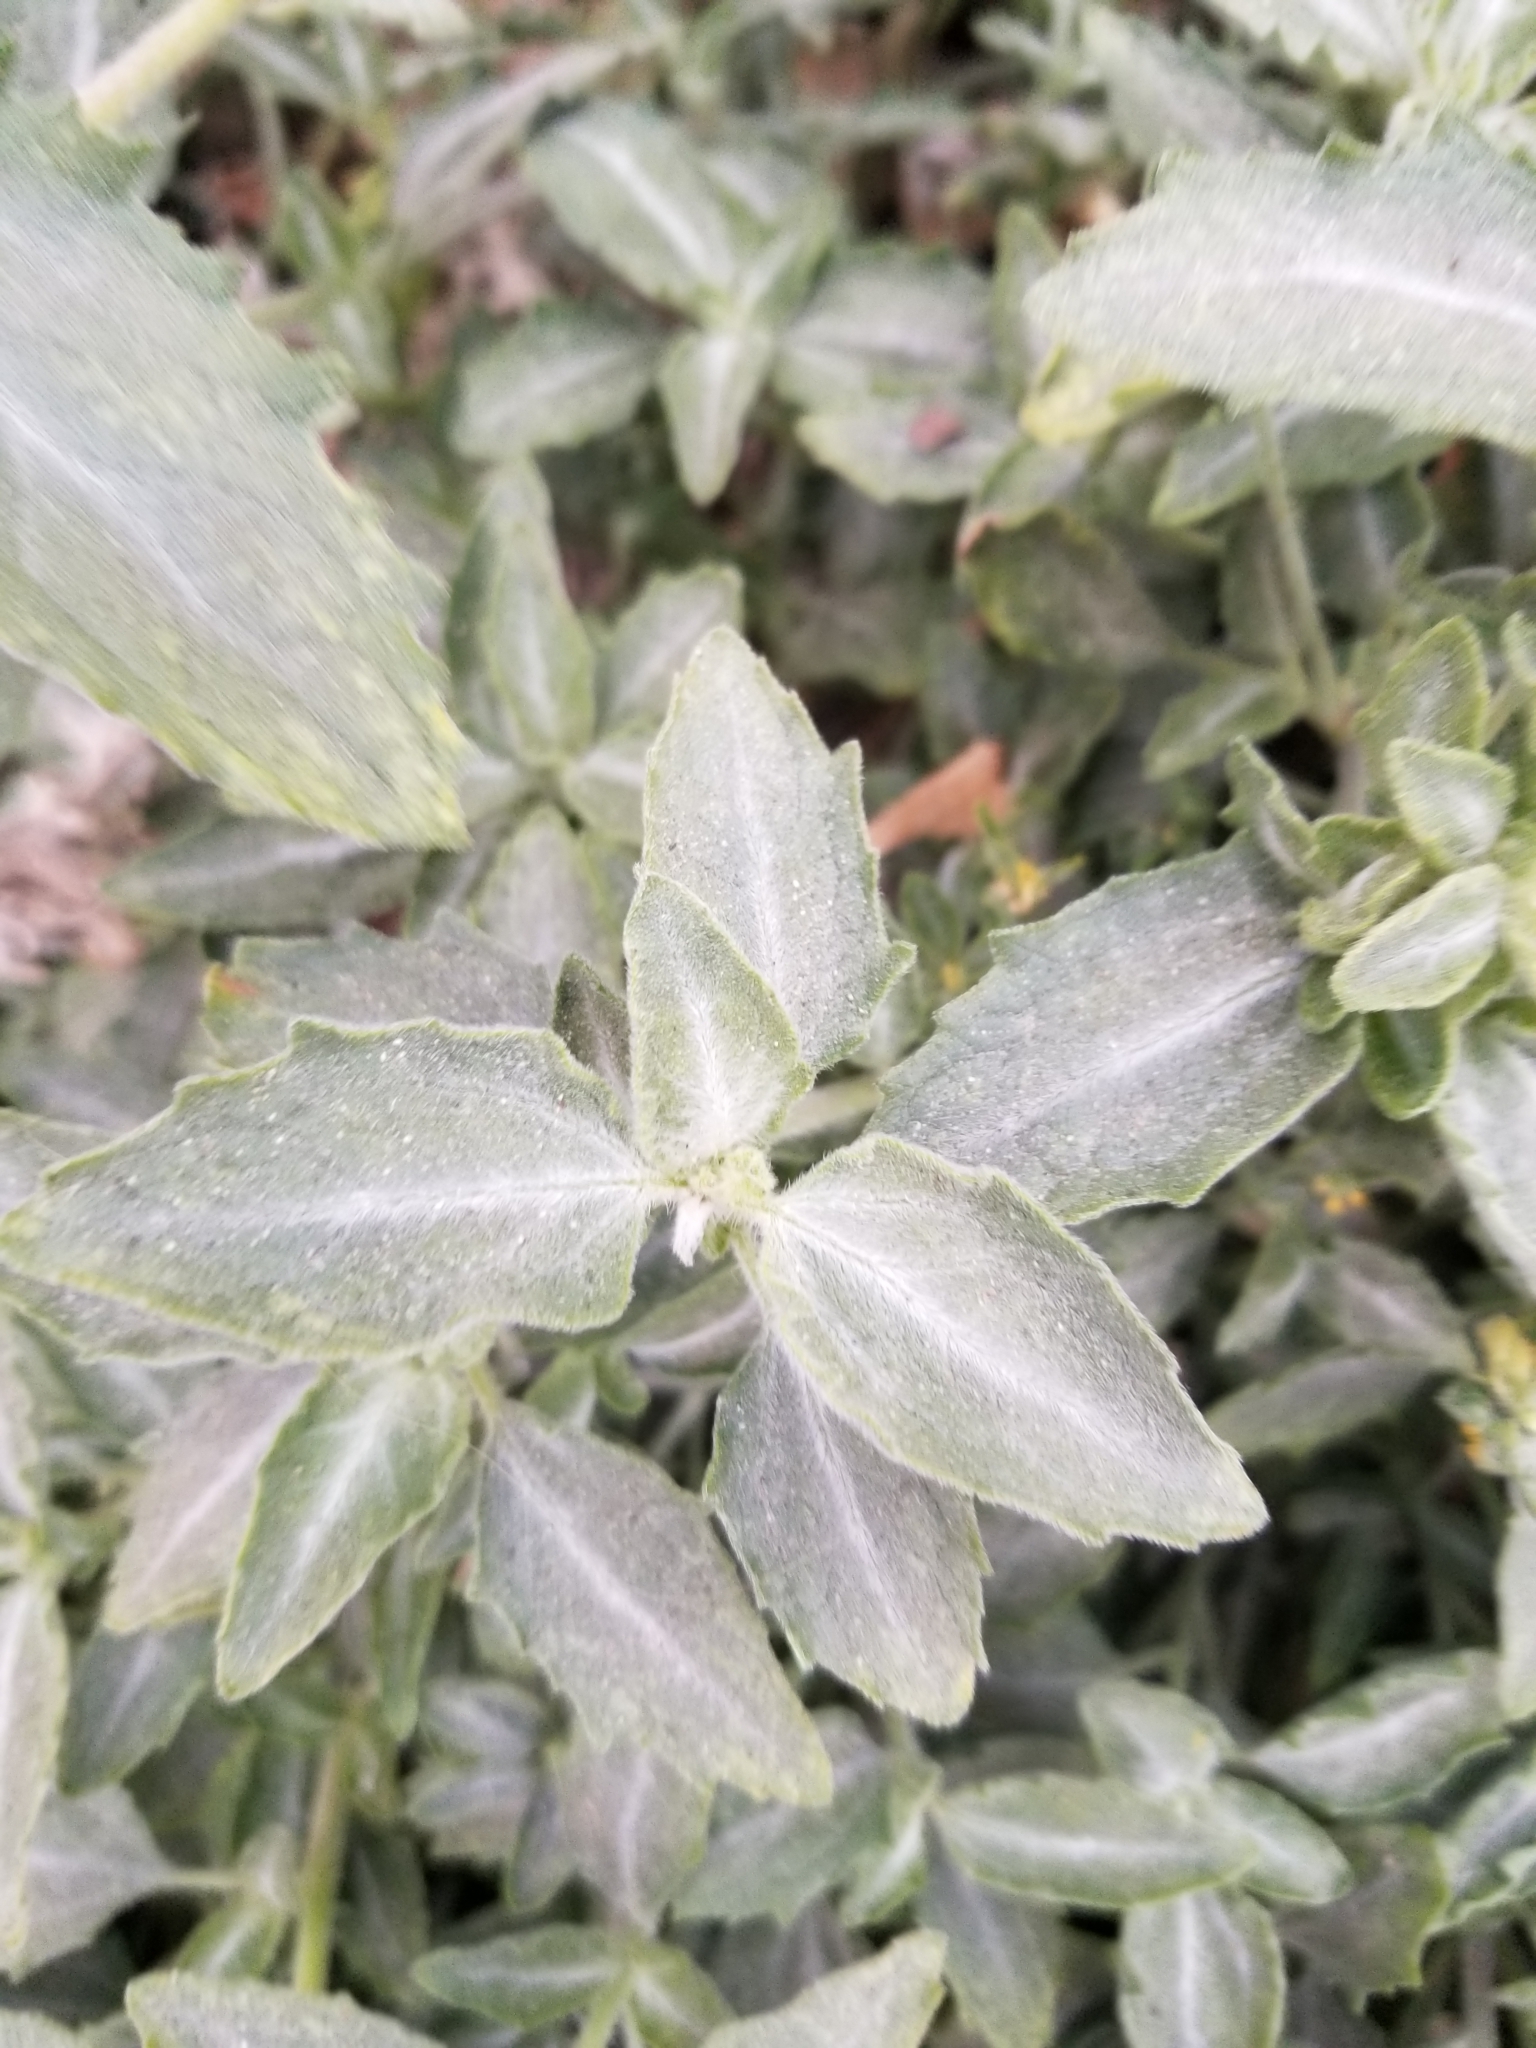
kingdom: Plantae
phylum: Tracheophyta
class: Magnoliopsida
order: Asterales
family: Asteraceae
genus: Dicoria
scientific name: Dicoria canescens
